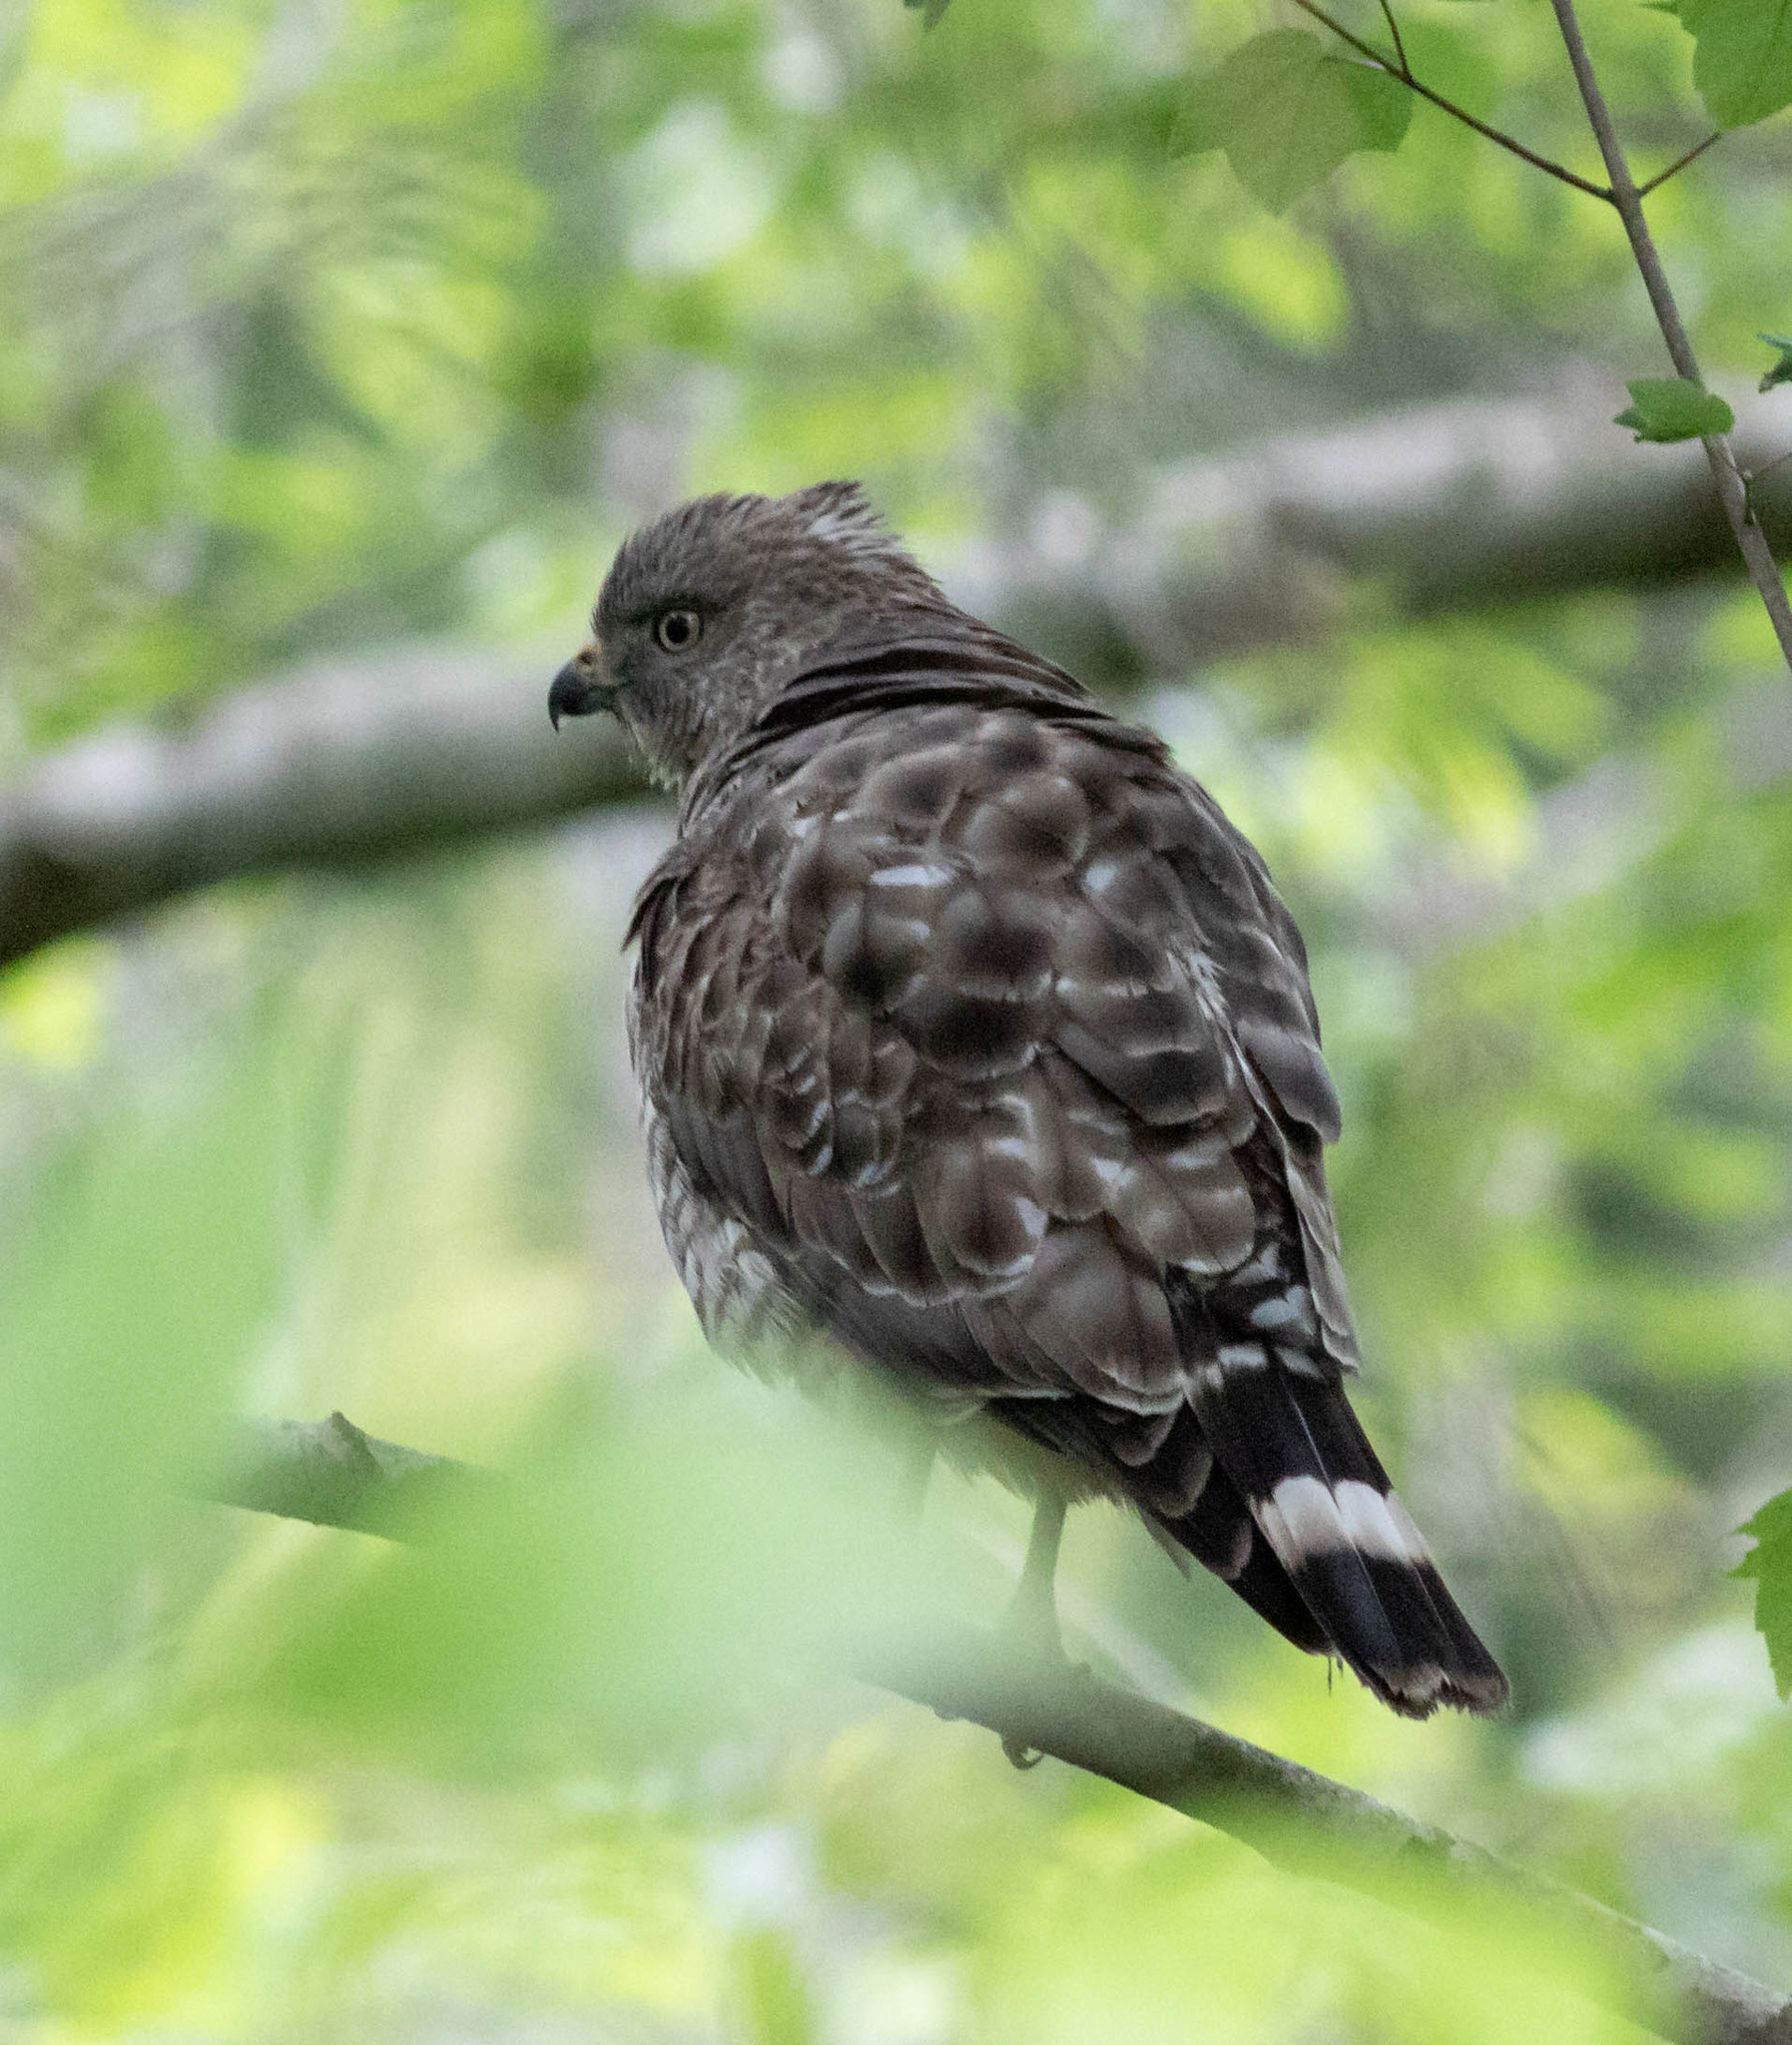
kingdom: Animalia
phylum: Chordata
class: Aves
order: Accipitriformes
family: Accipitridae
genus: Buteo
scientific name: Buteo platypterus
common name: Broad-winged hawk
